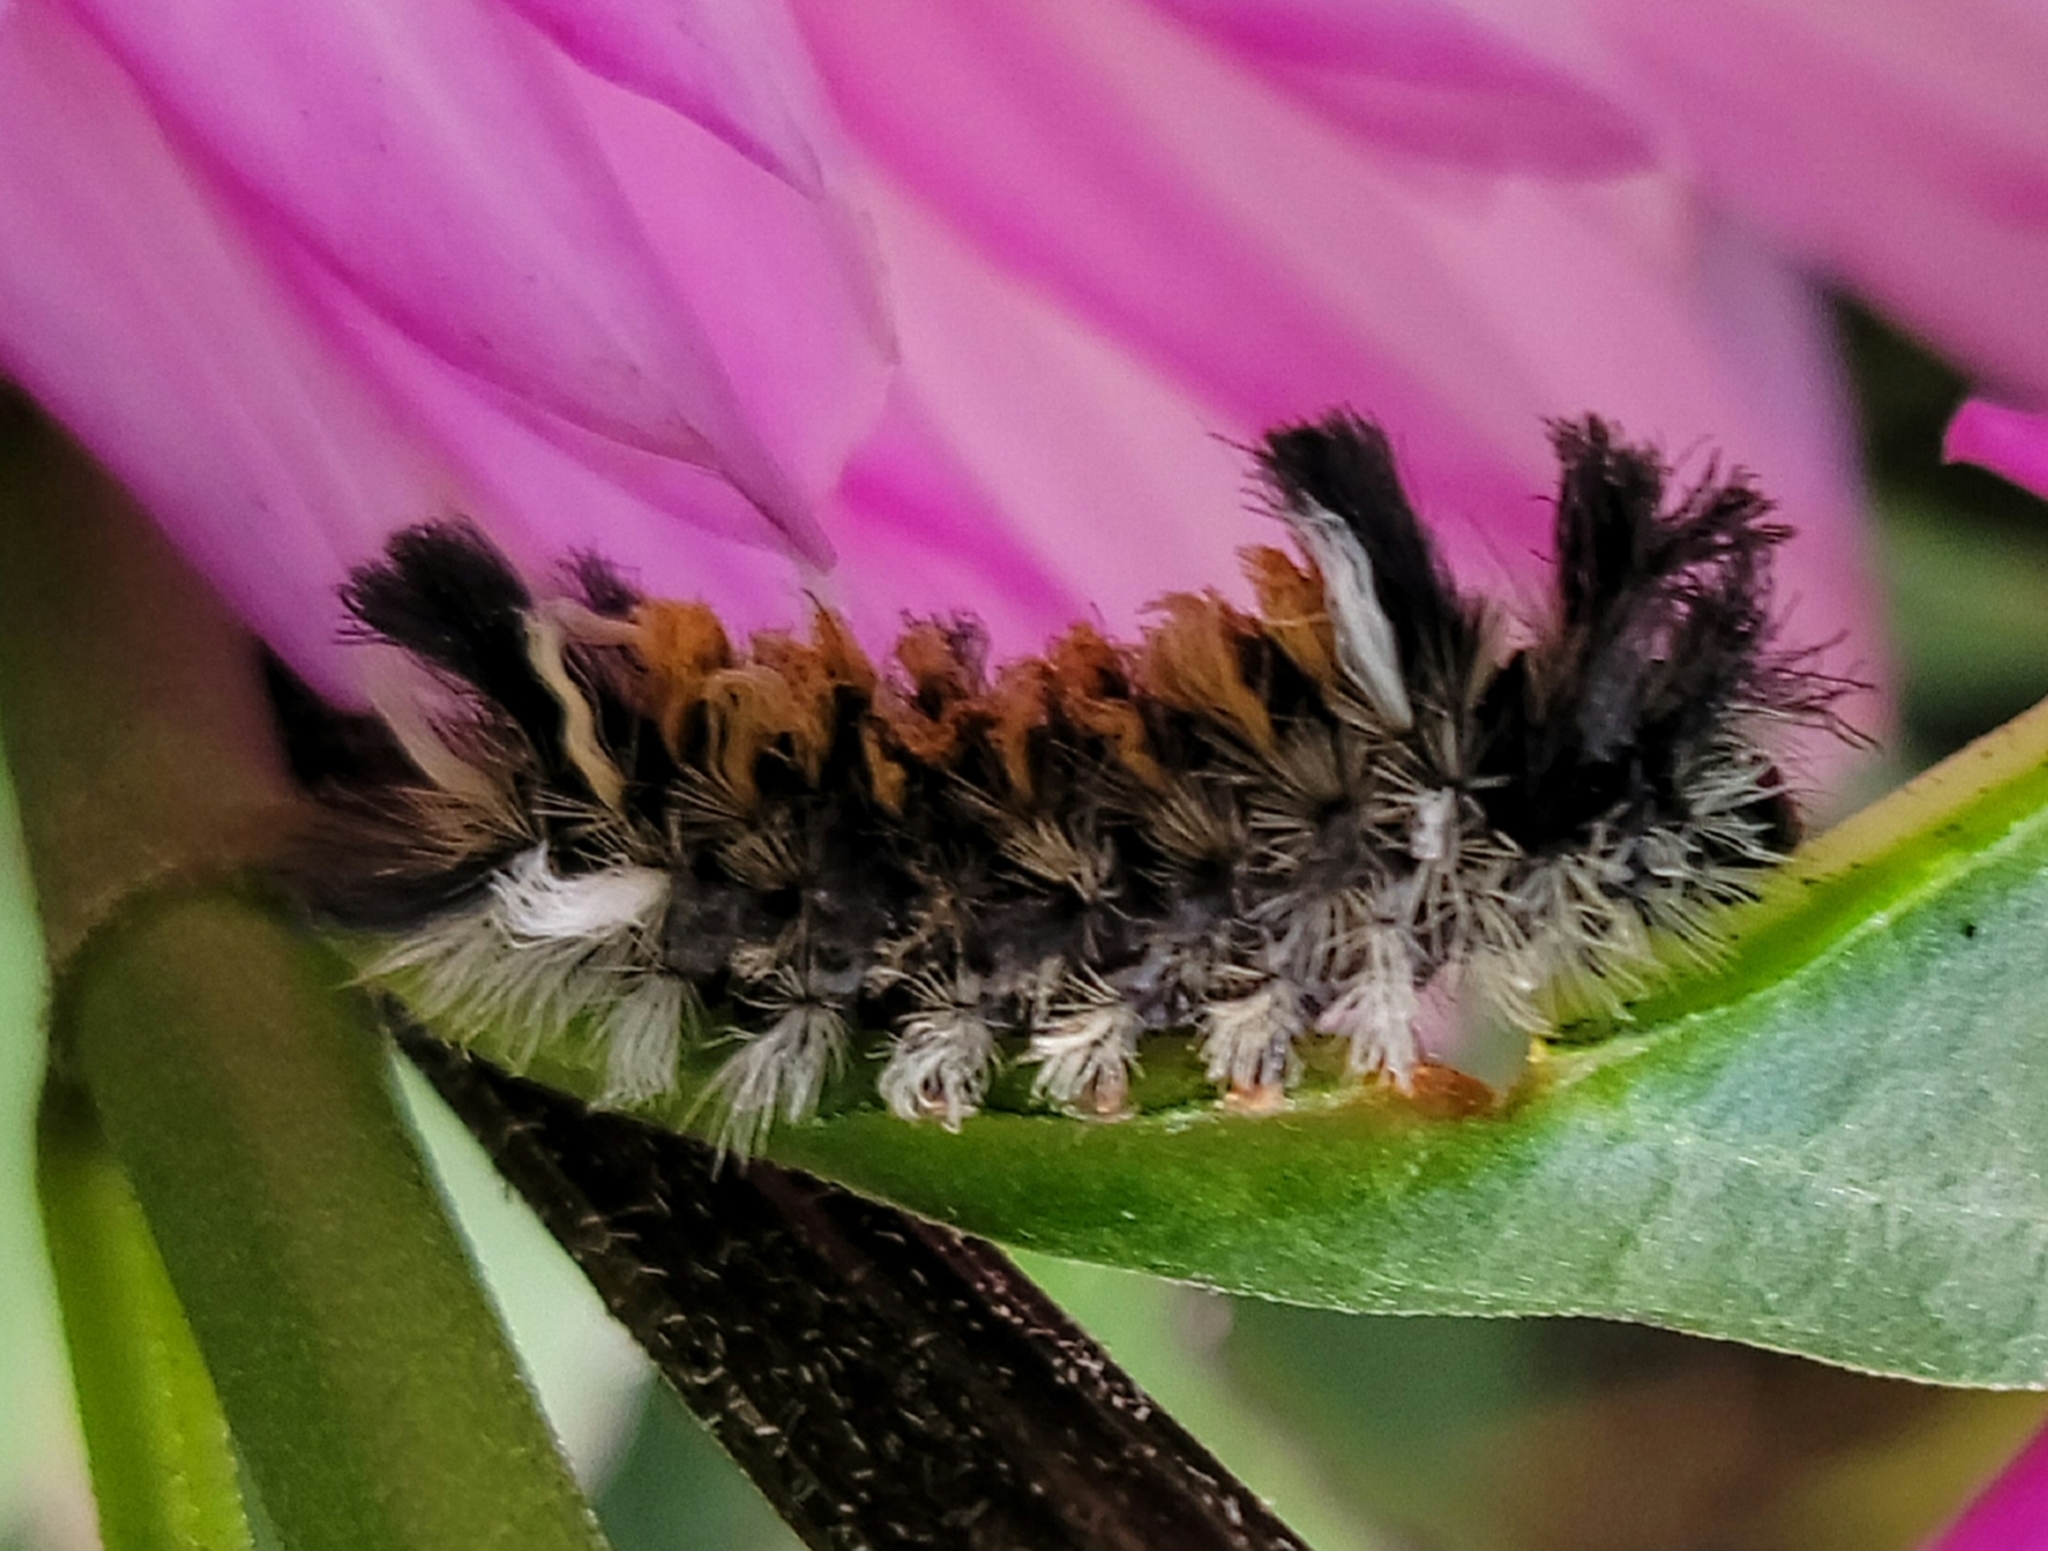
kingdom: Animalia
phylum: Arthropoda
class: Insecta
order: Lepidoptera
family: Erebidae
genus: Euchaetes
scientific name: Euchaetes egle
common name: Milkweed tussock moth
